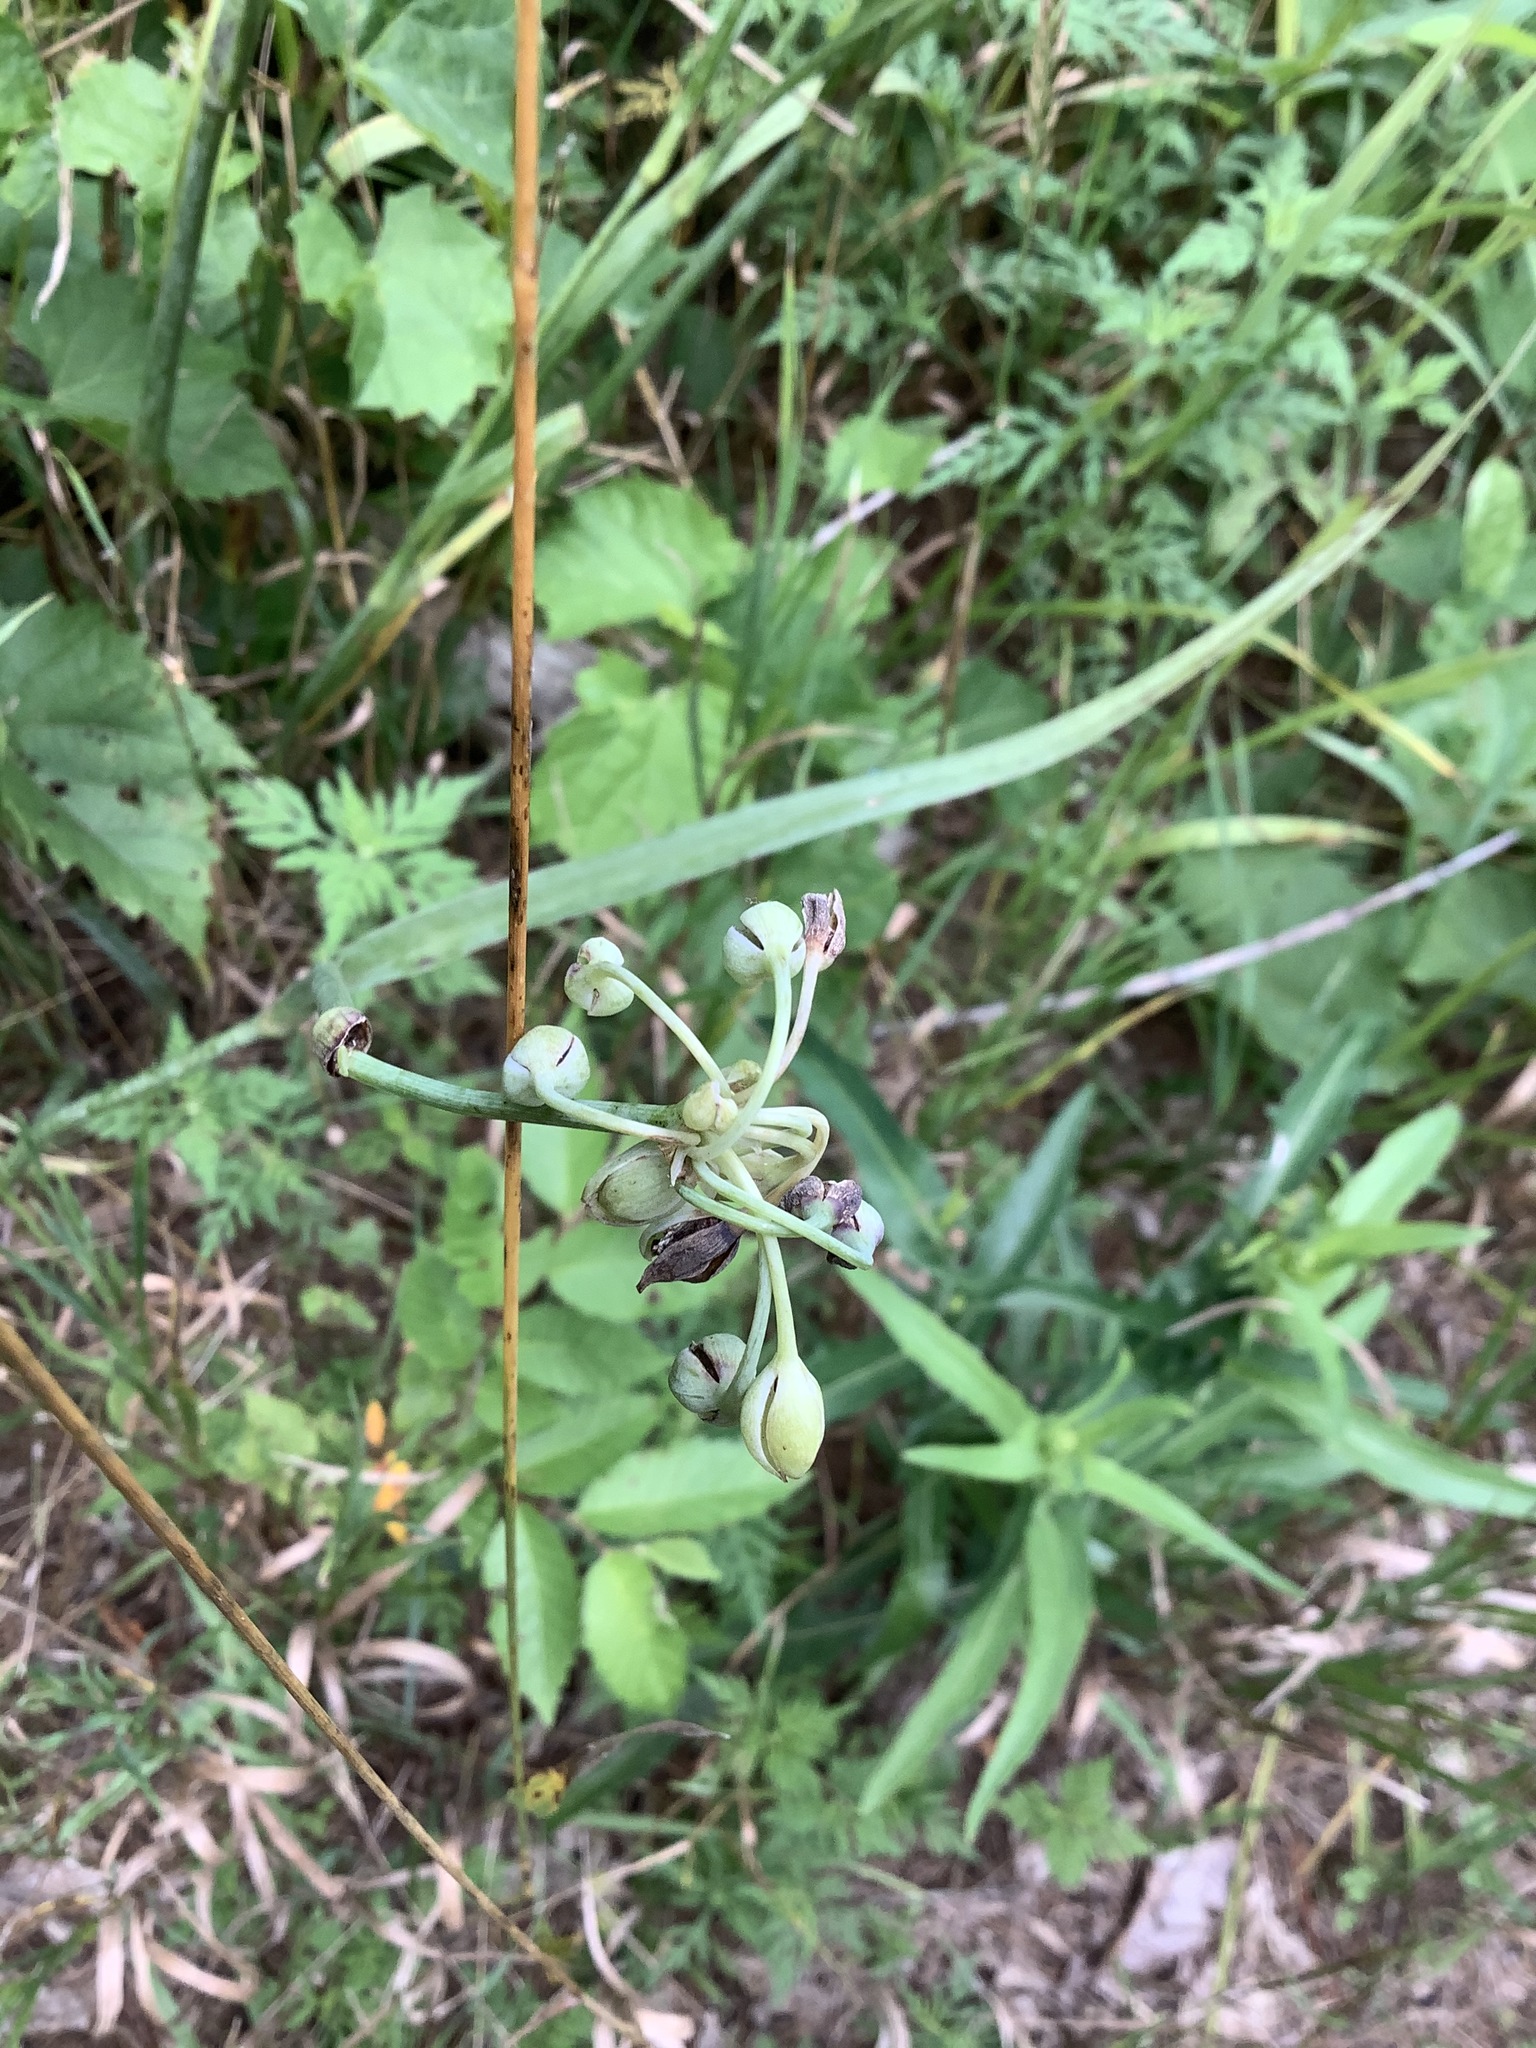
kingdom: Plantae
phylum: Tracheophyta
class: Liliopsida
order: Commelinales
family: Commelinaceae
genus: Tradescantia
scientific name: Tradescantia ohiensis
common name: Ohio spiderwort
